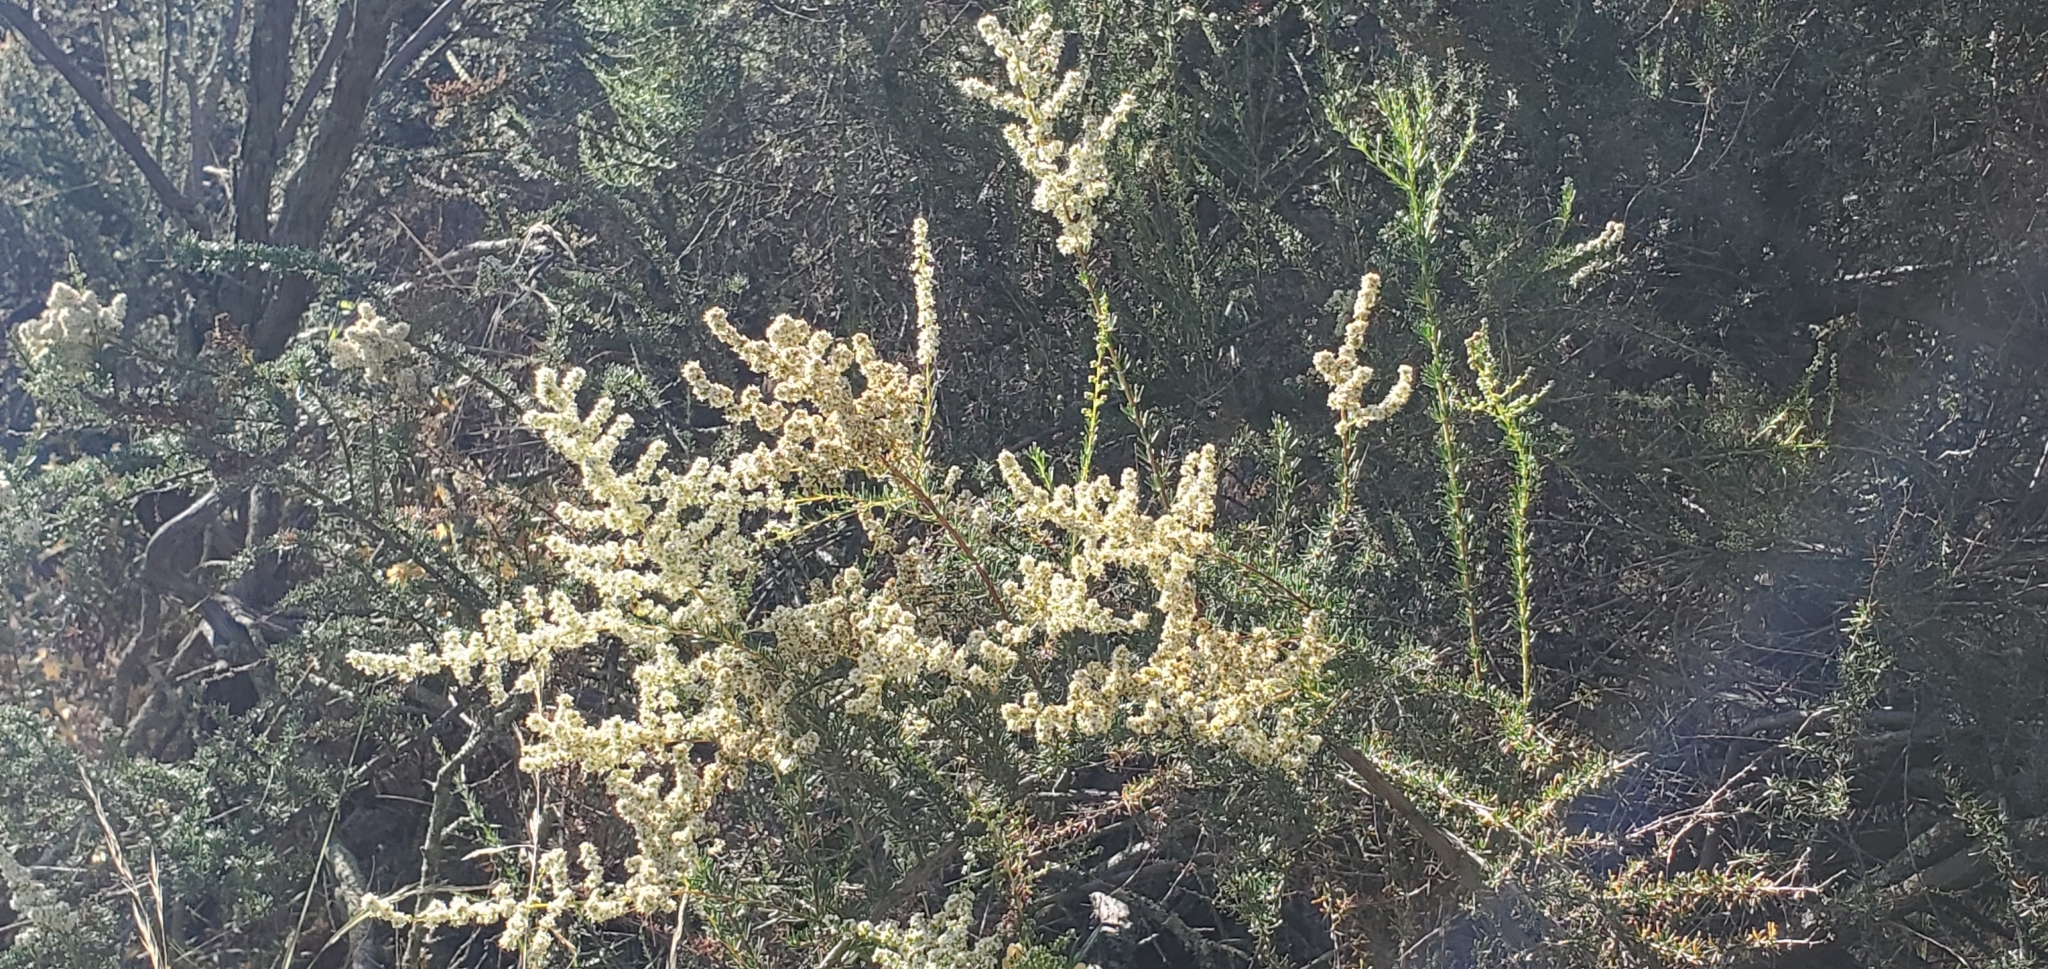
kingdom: Plantae
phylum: Tracheophyta
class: Magnoliopsida
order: Rosales
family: Rosaceae
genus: Adenostoma
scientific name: Adenostoma fasciculatum
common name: Chamise
